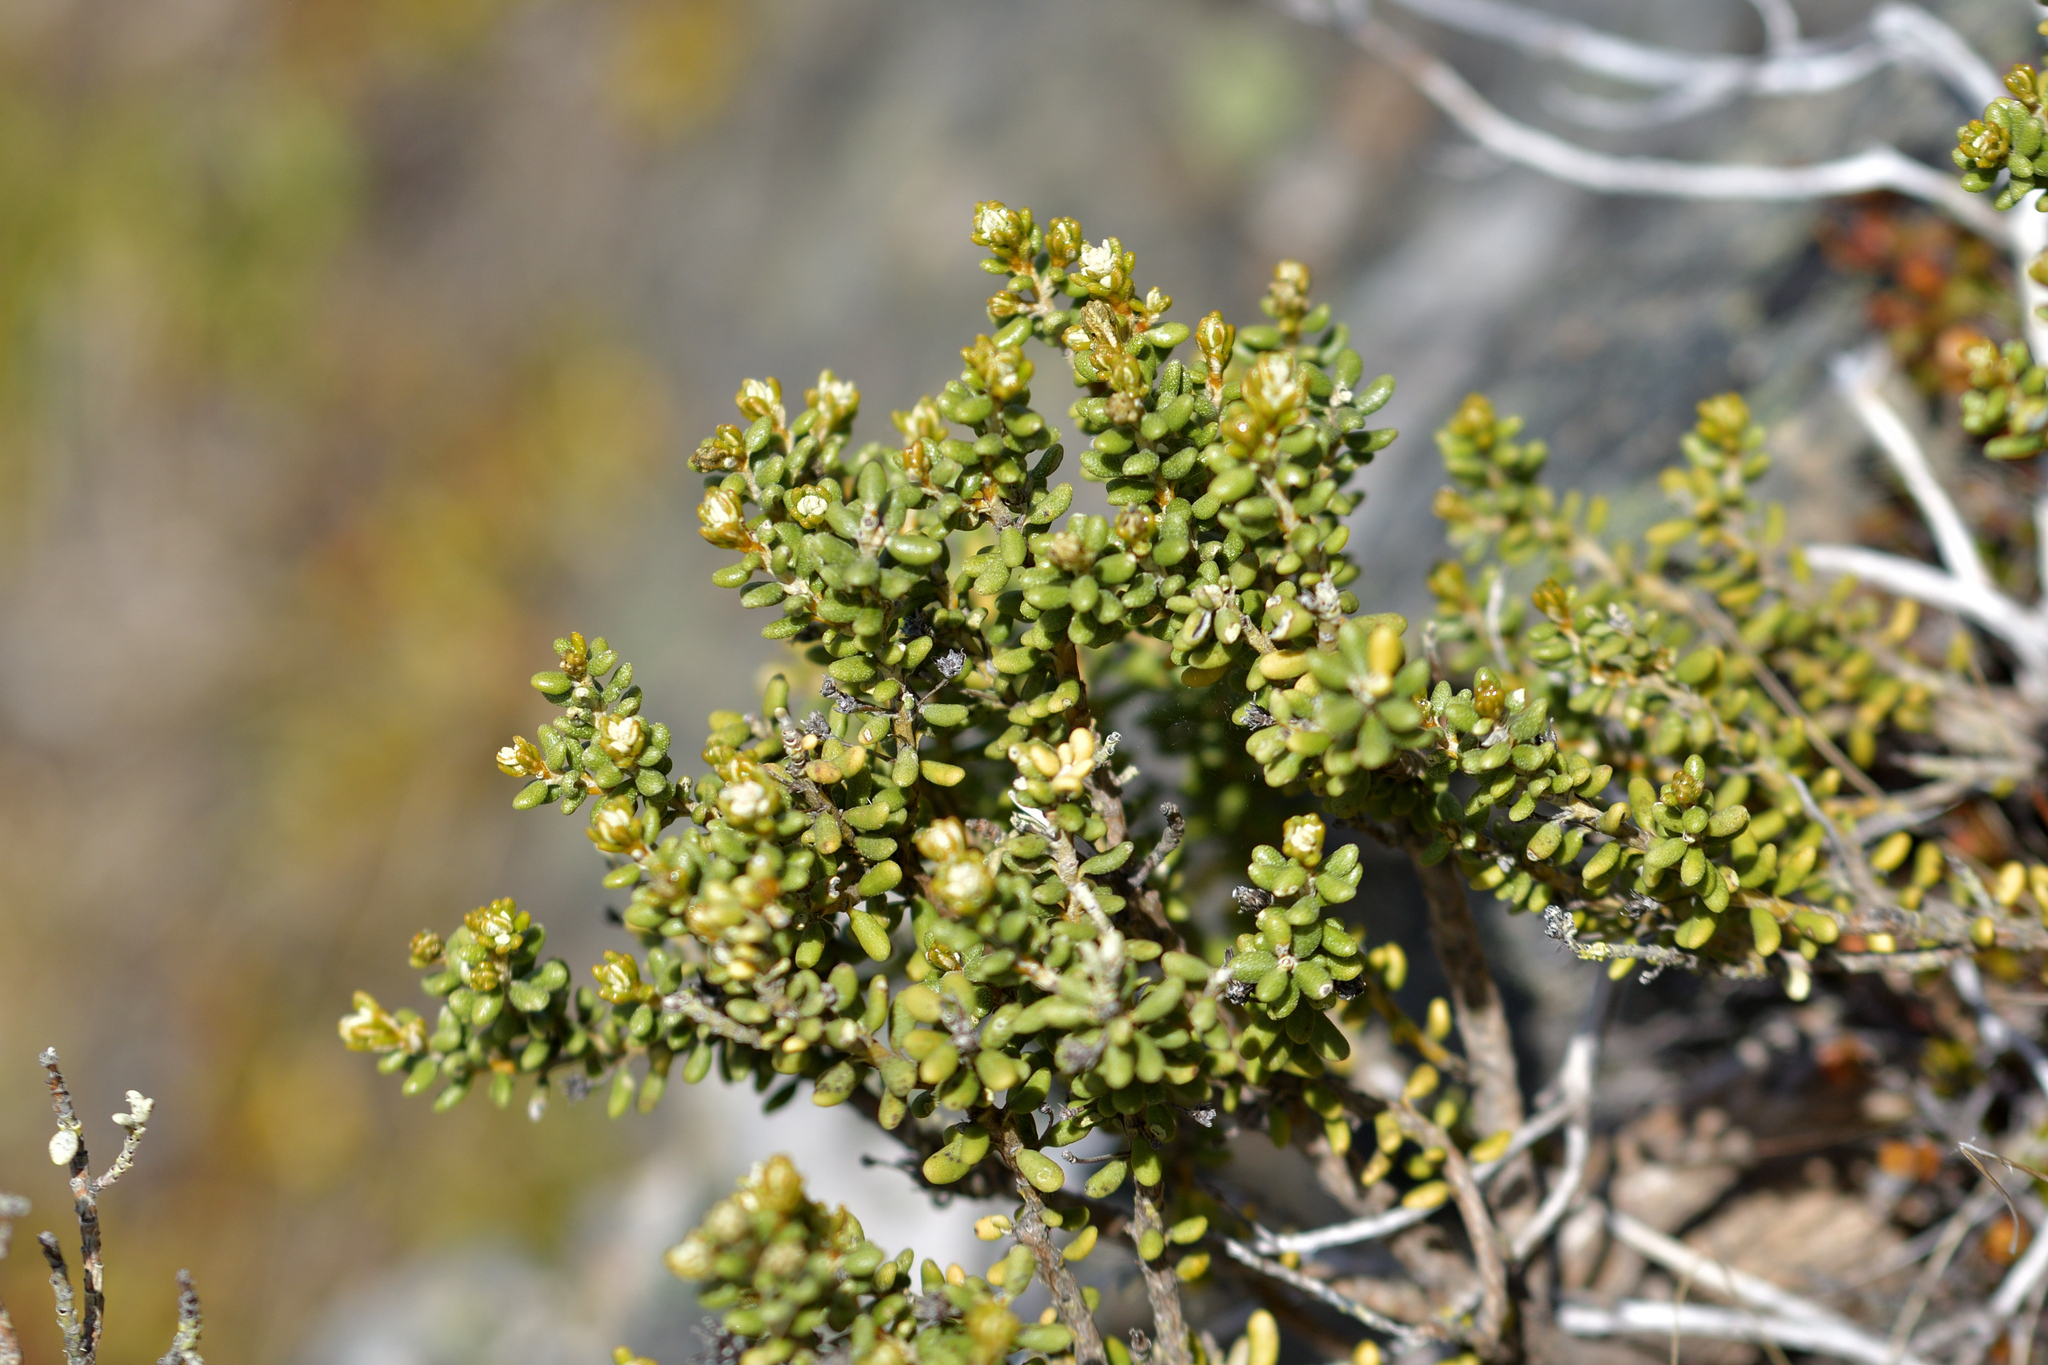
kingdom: Plantae
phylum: Tracheophyta
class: Magnoliopsida
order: Asterales
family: Asteraceae
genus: Olearia
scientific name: Olearia cymbifolia
